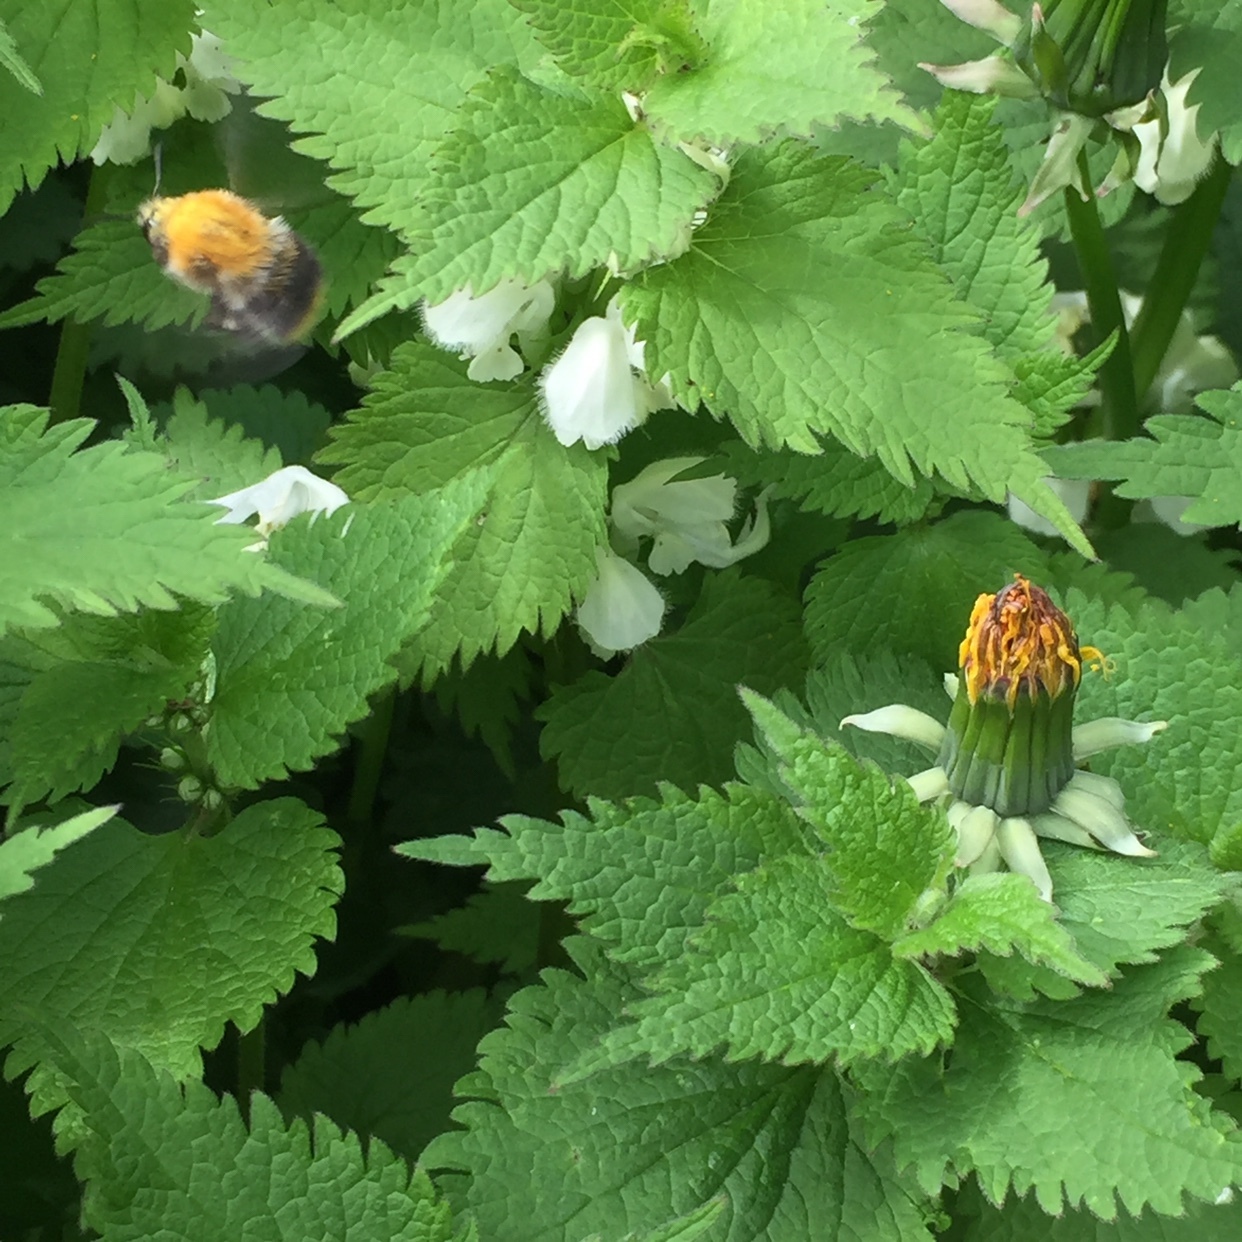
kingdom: Animalia
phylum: Arthropoda
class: Insecta
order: Hymenoptera
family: Apidae
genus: Bombus
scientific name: Bombus pascuorum
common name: Common carder bee
